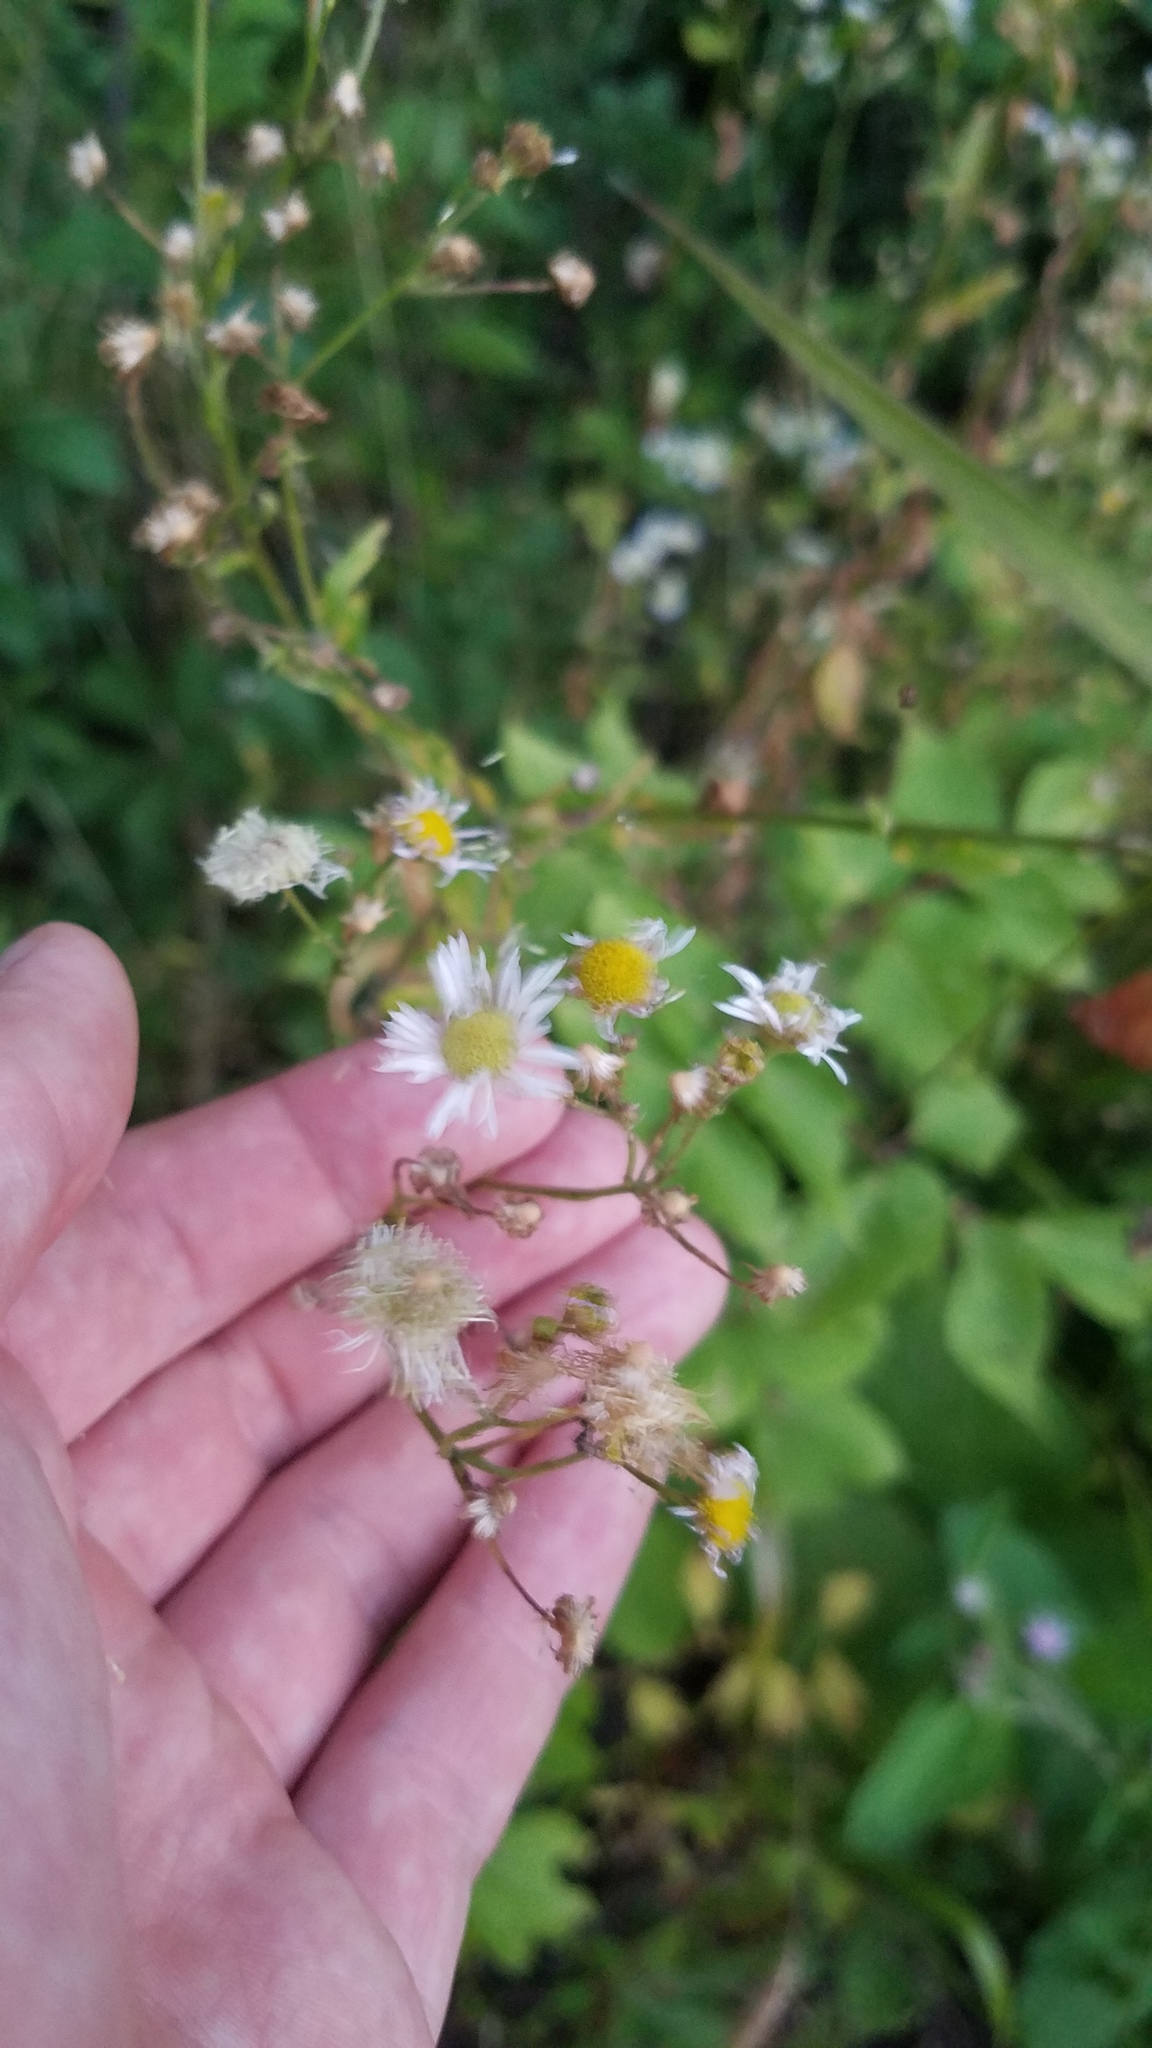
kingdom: Plantae
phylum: Tracheophyta
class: Magnoliopsida
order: Asterales
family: Asteraceae
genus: Erigeron
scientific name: Erigeron strigosus
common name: Common eastern fleabane
